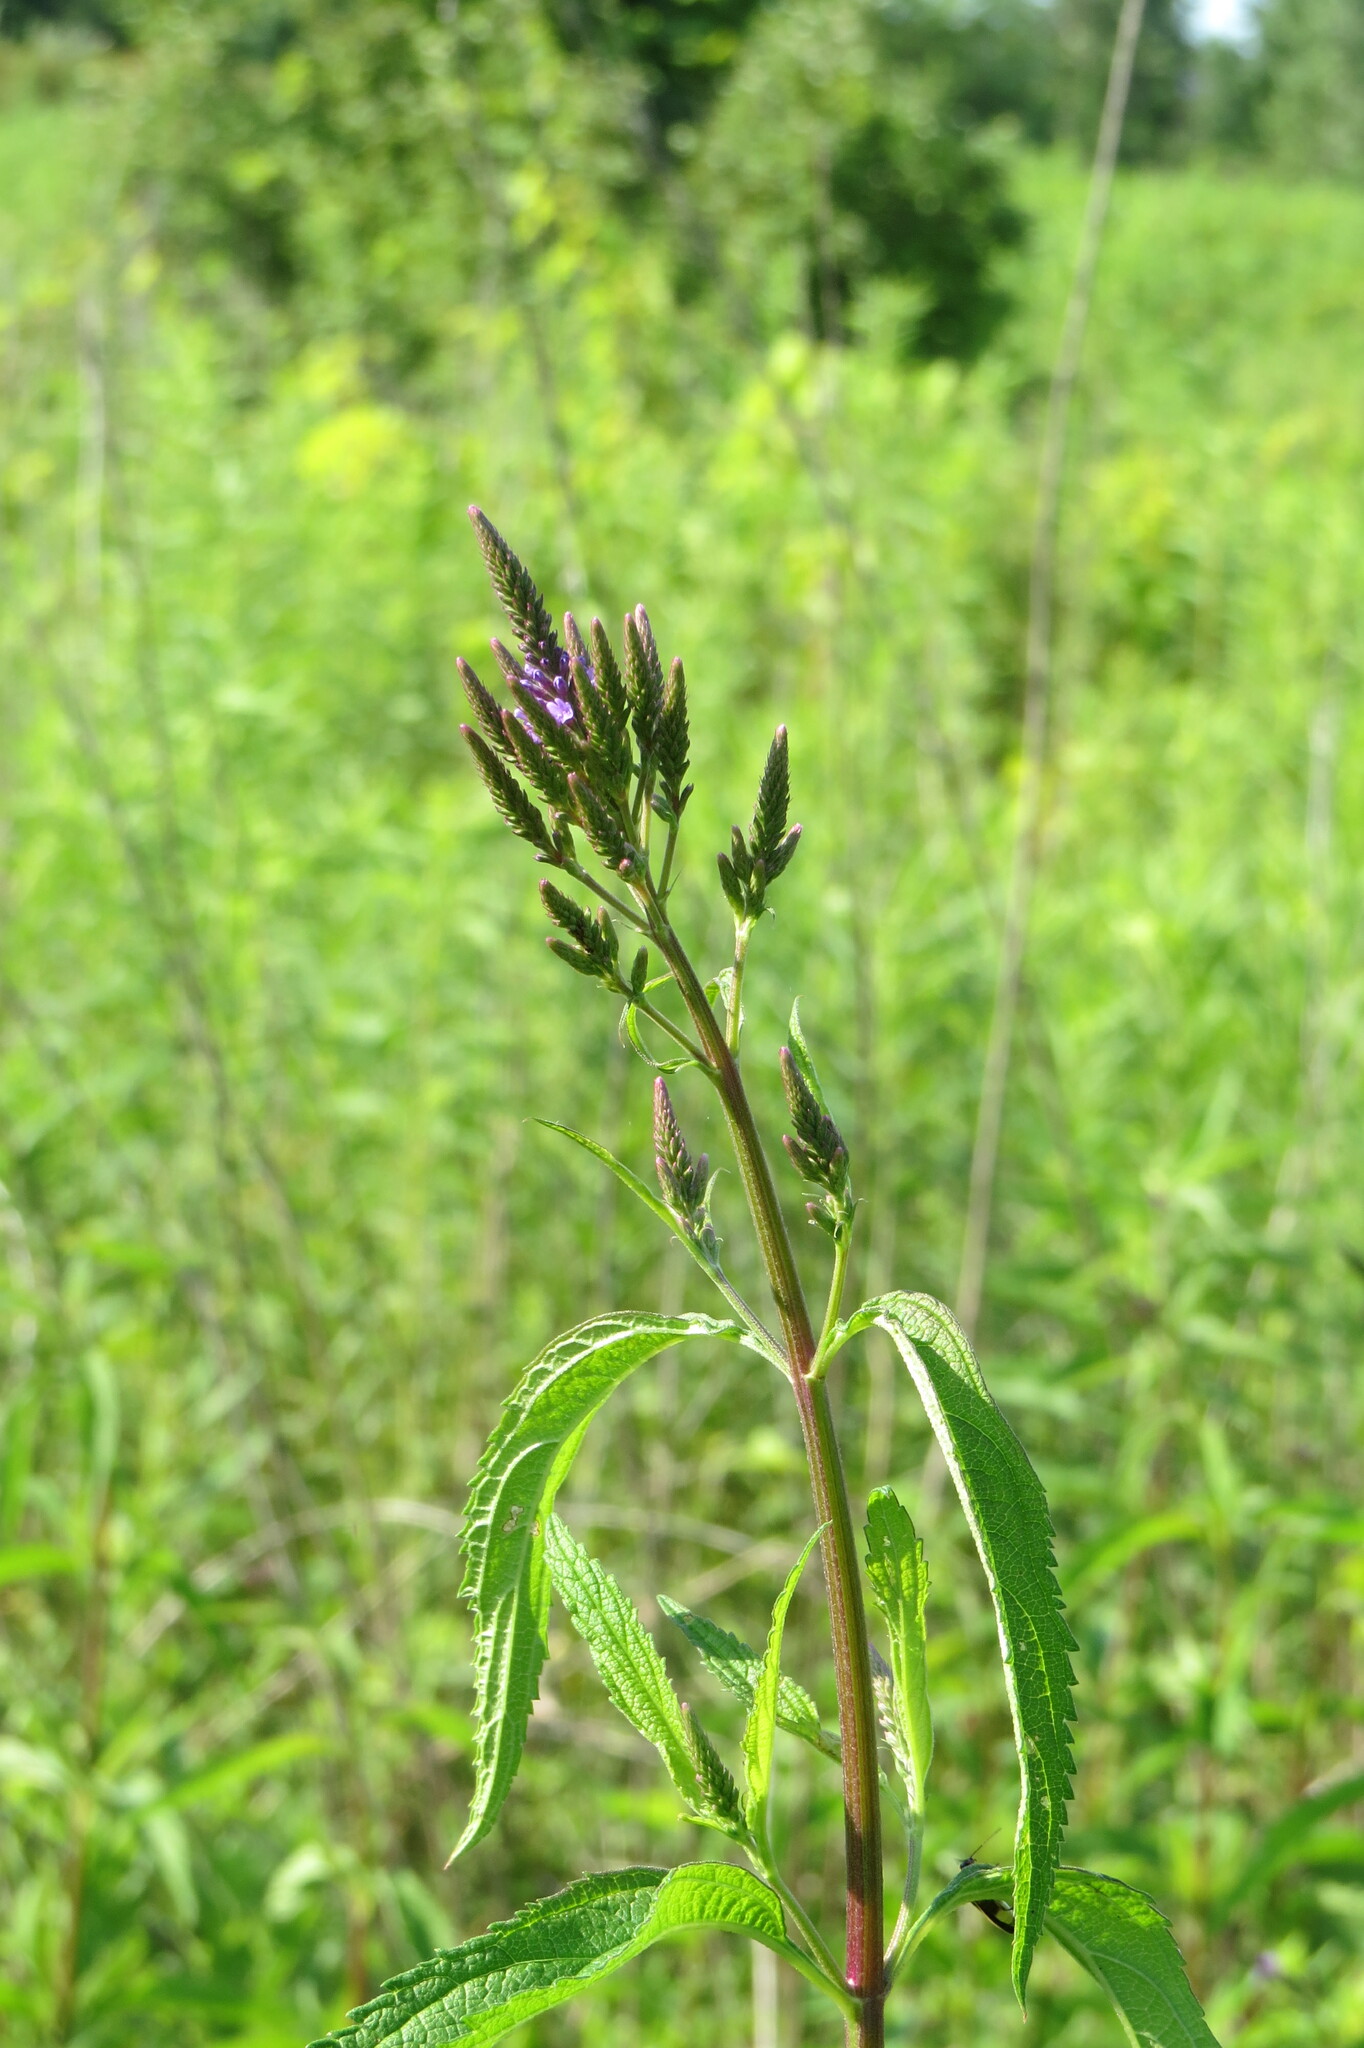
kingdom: Plantae
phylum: Tracheophyta
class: Magnoliopsida
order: Lamiales
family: Verbenaceae
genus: Verbena
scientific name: Verbena hastata
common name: American blue vervain
